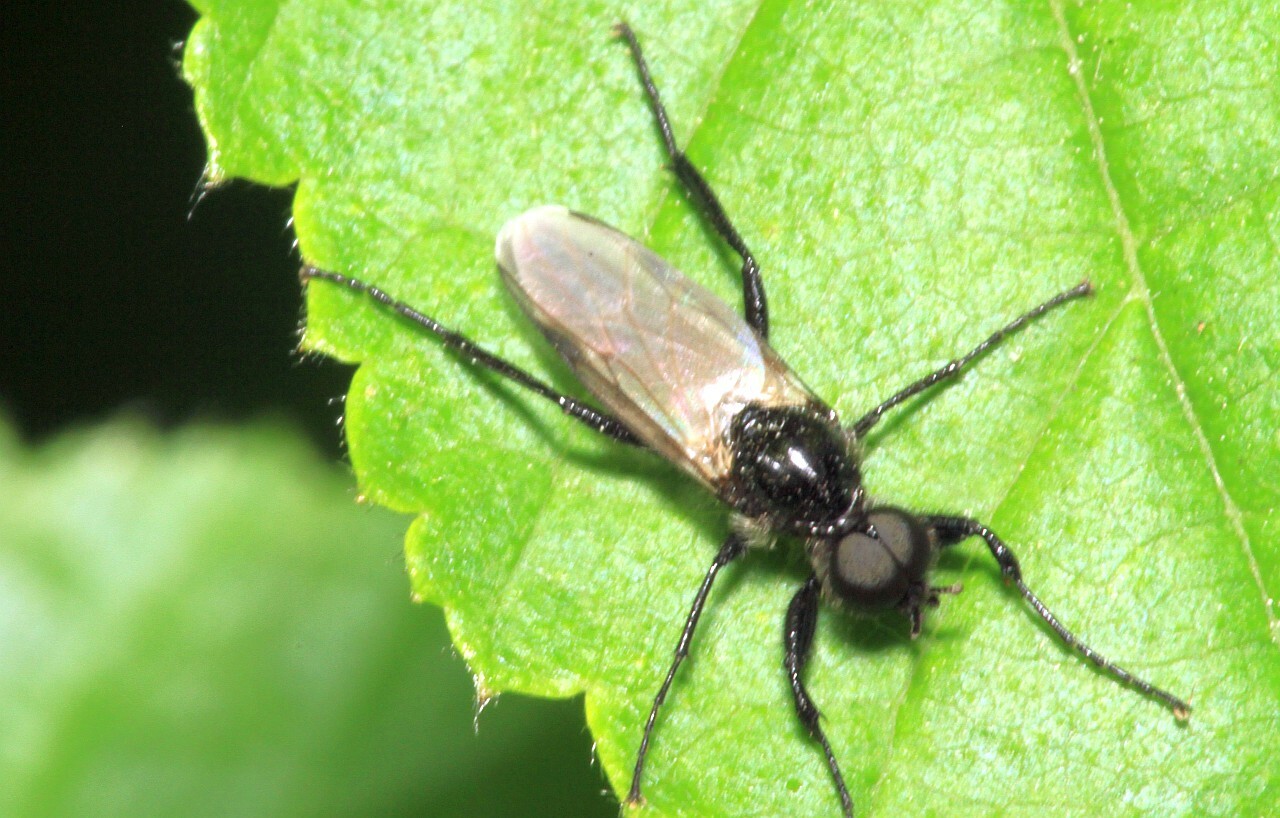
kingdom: Animalia
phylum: Arthropoda
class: Insecta
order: Diptera
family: Bibionidae
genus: Bibio
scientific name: Bibio hortulanus
